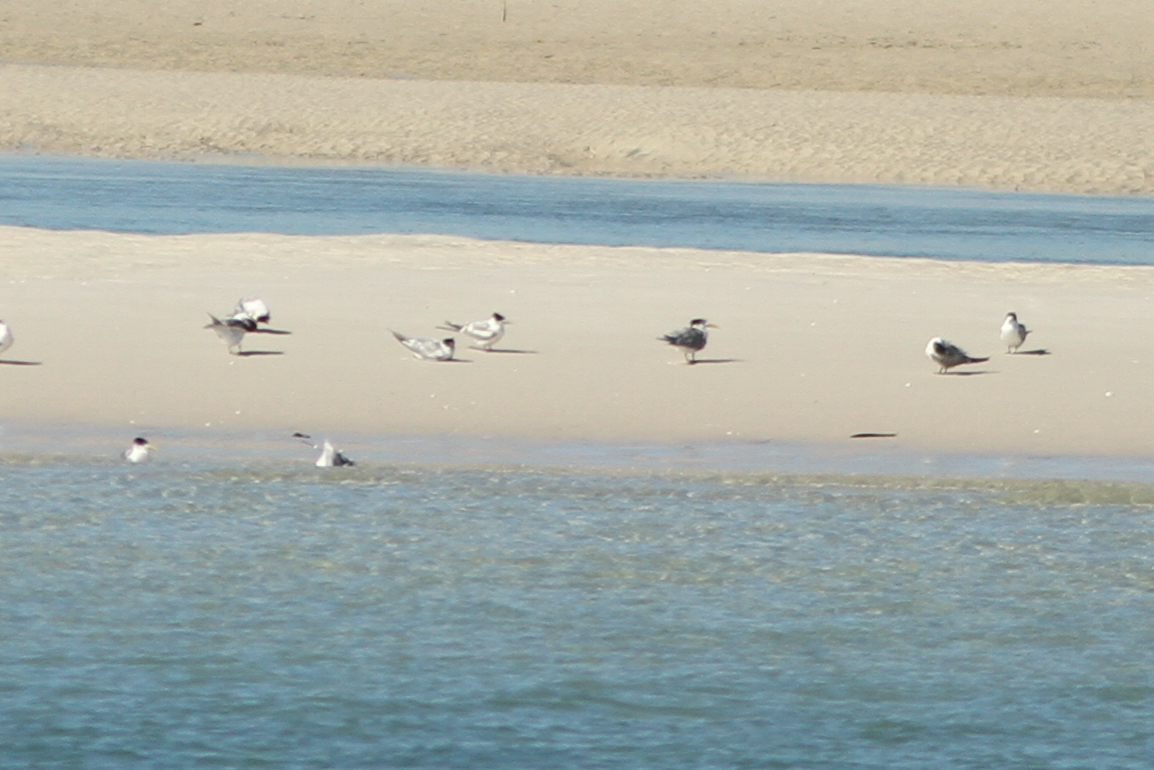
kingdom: Animalia
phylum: Chordata
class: Aves
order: Charadriiformes
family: Laridae
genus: Thalasseus
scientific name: Thalasseus bergii
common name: Greater crested tern
